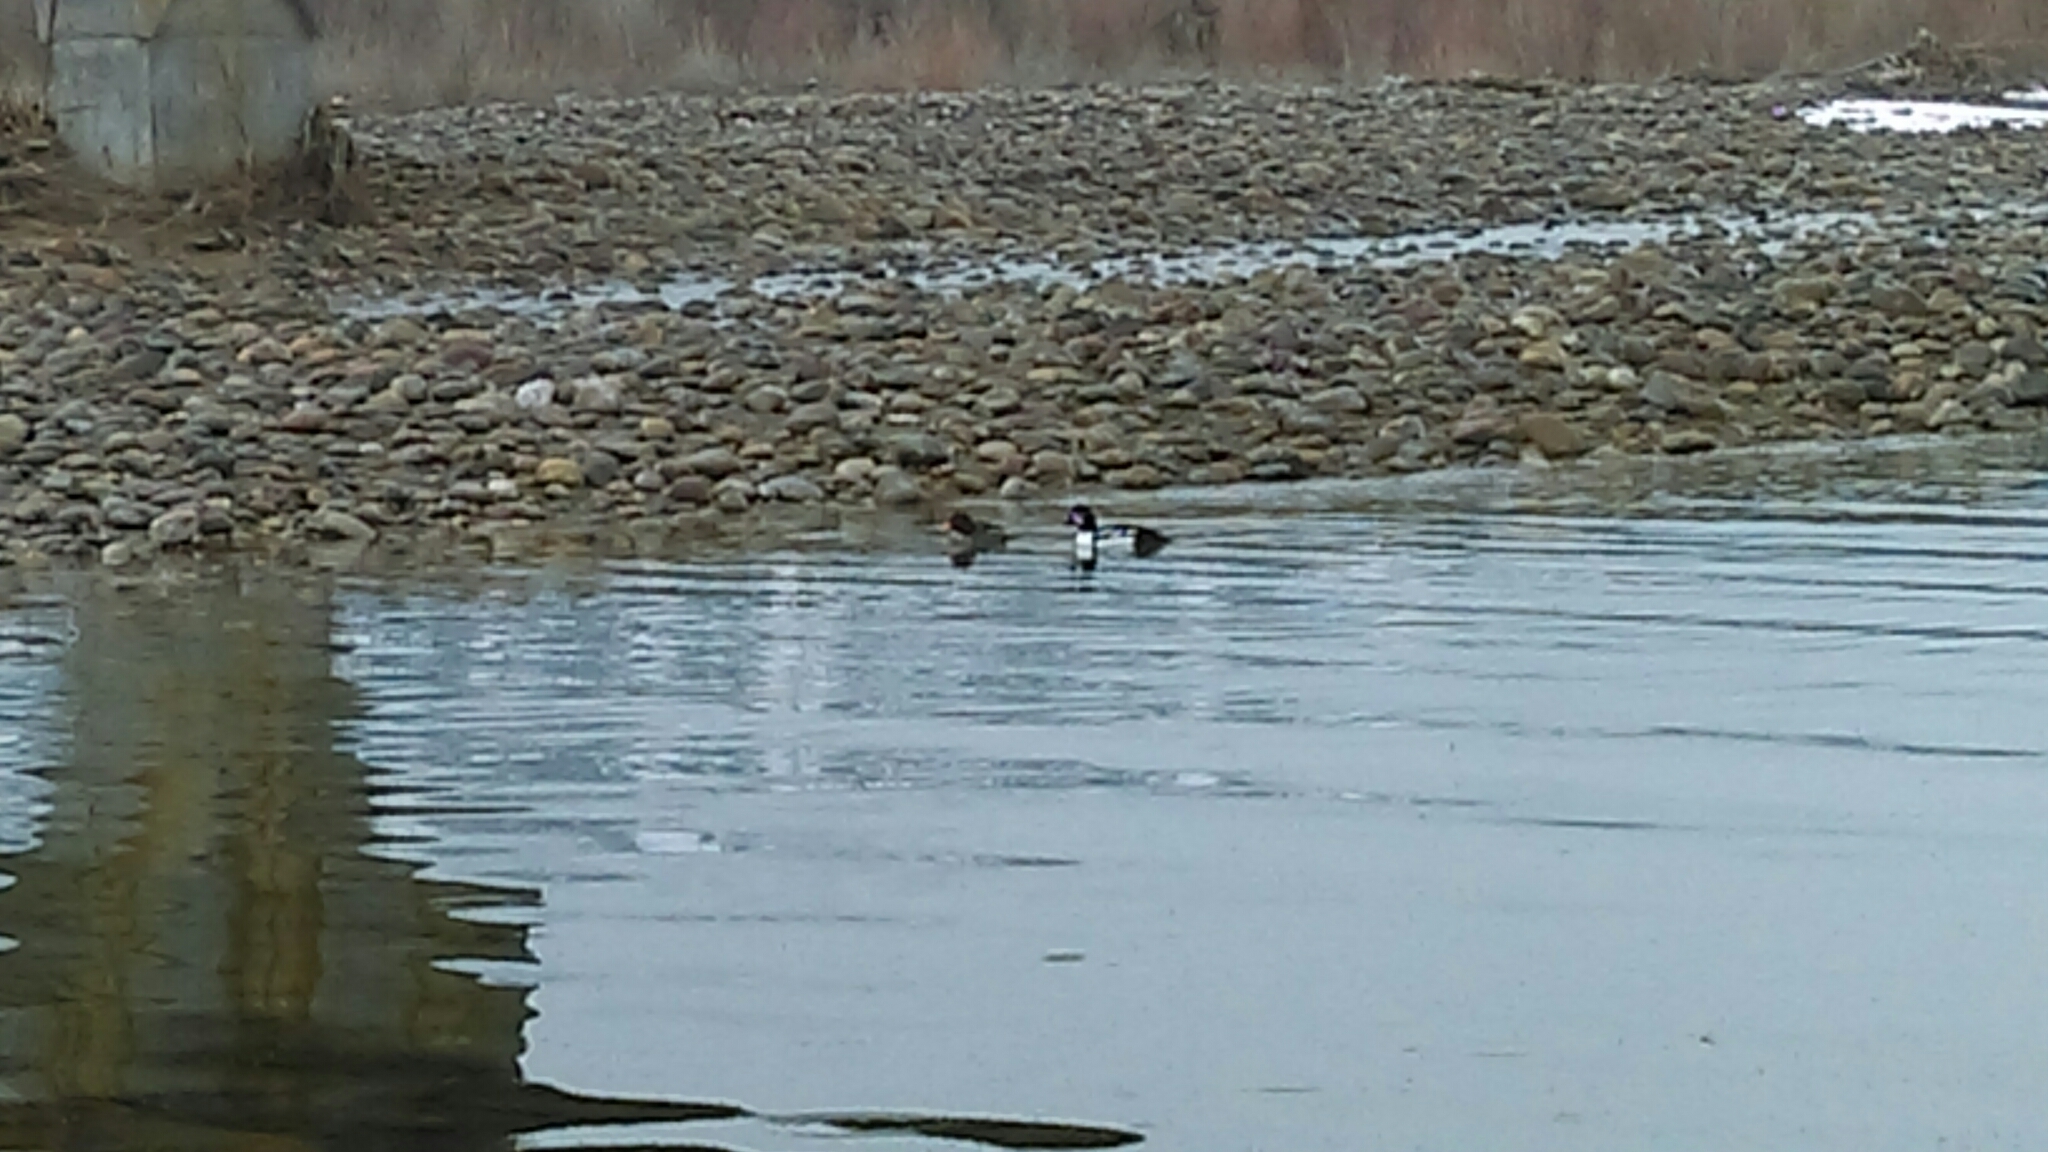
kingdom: Animalia
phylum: Chordata
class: Aves
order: Anseriformes
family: Anatidae
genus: Bucephala
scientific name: Bucephala islandica
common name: Barrow's goldeneye
